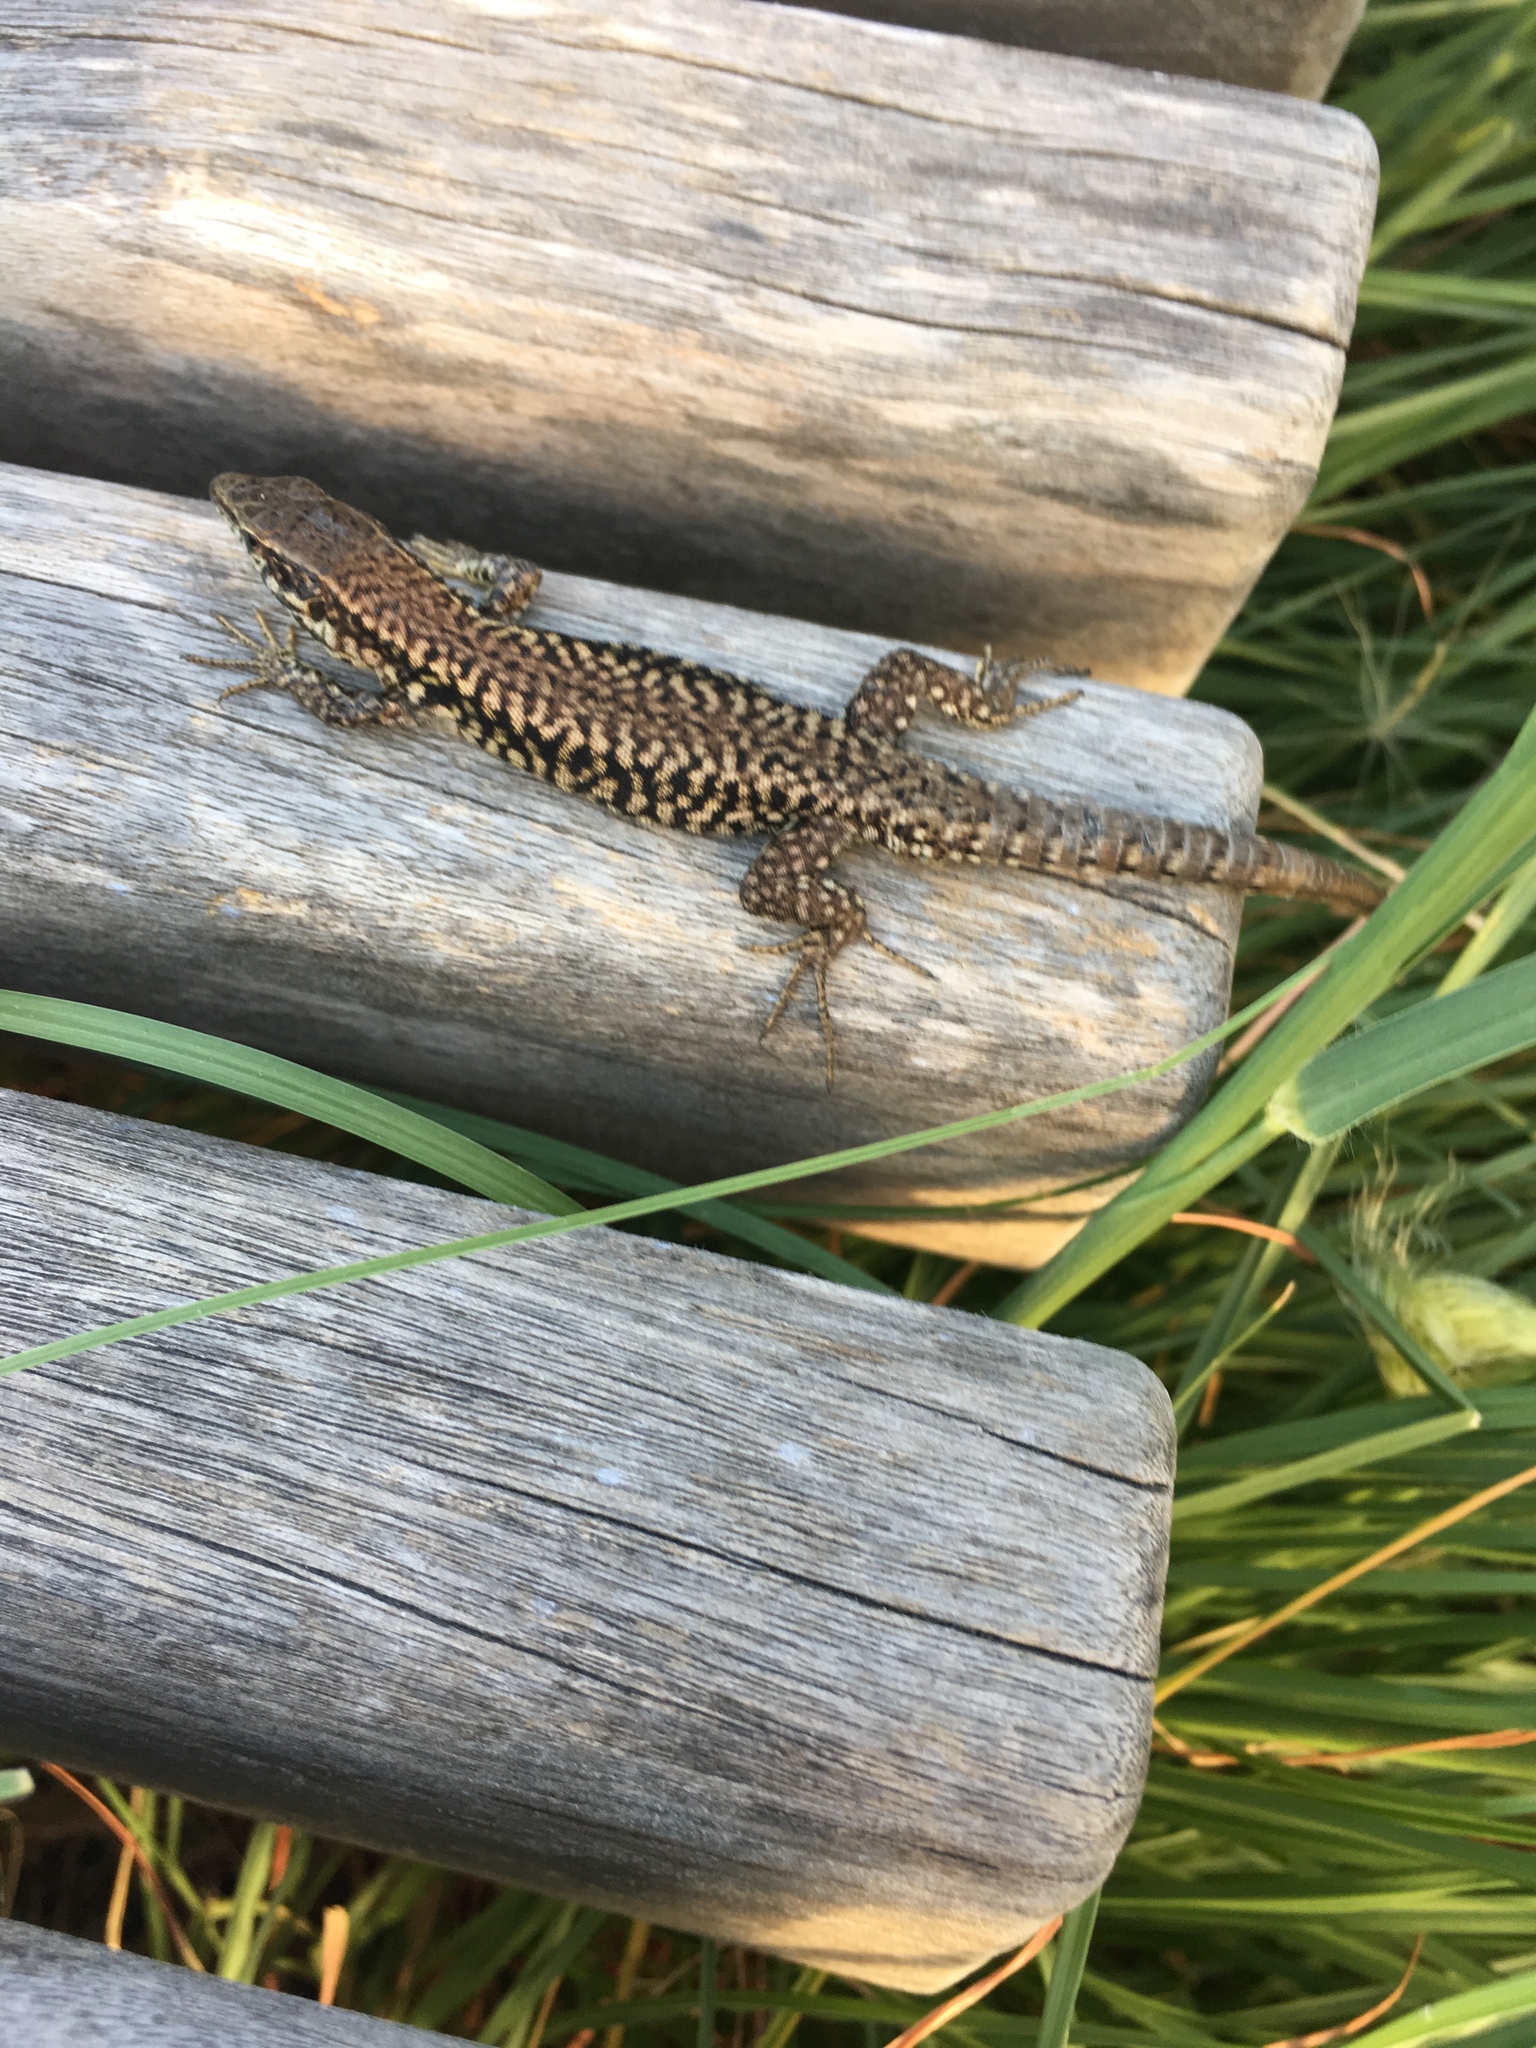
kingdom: Animalia
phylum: Chordata
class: Squamata
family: Lacertidae
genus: Podarcis
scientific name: Podarcis muralis
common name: Common wall lizard
